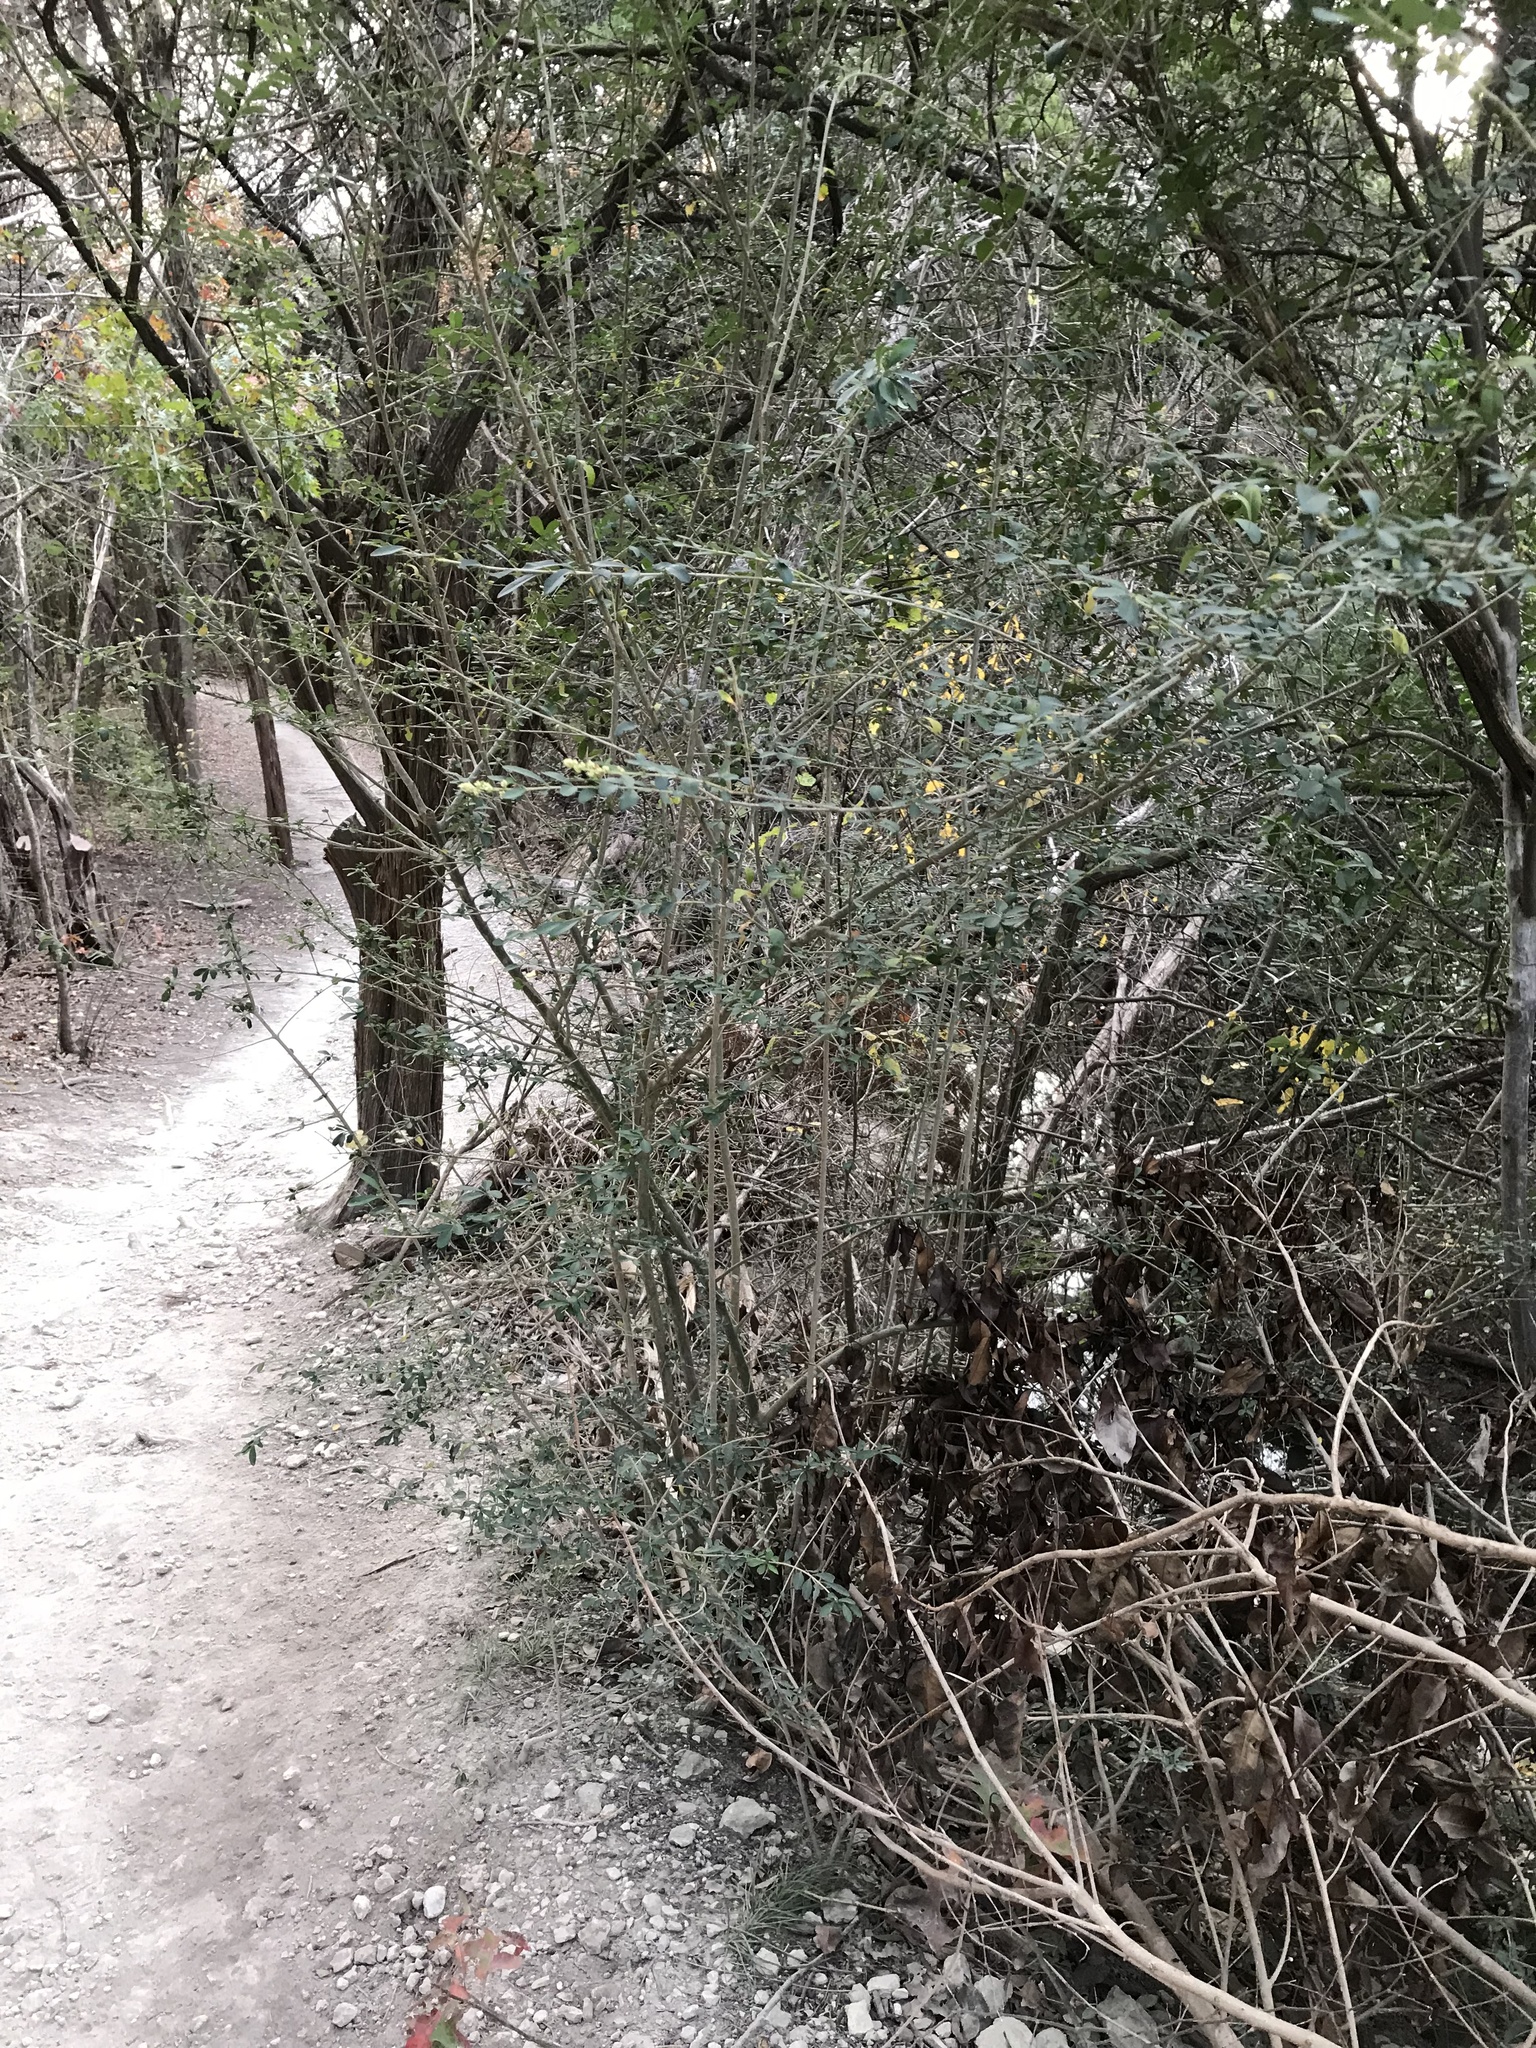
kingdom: Plantae
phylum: Tracheophyta
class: Magnoliopsida
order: Lamiales
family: Oleaceae
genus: Ligustrum
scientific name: Ligustrum quihoui
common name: Waxyleaf privet
